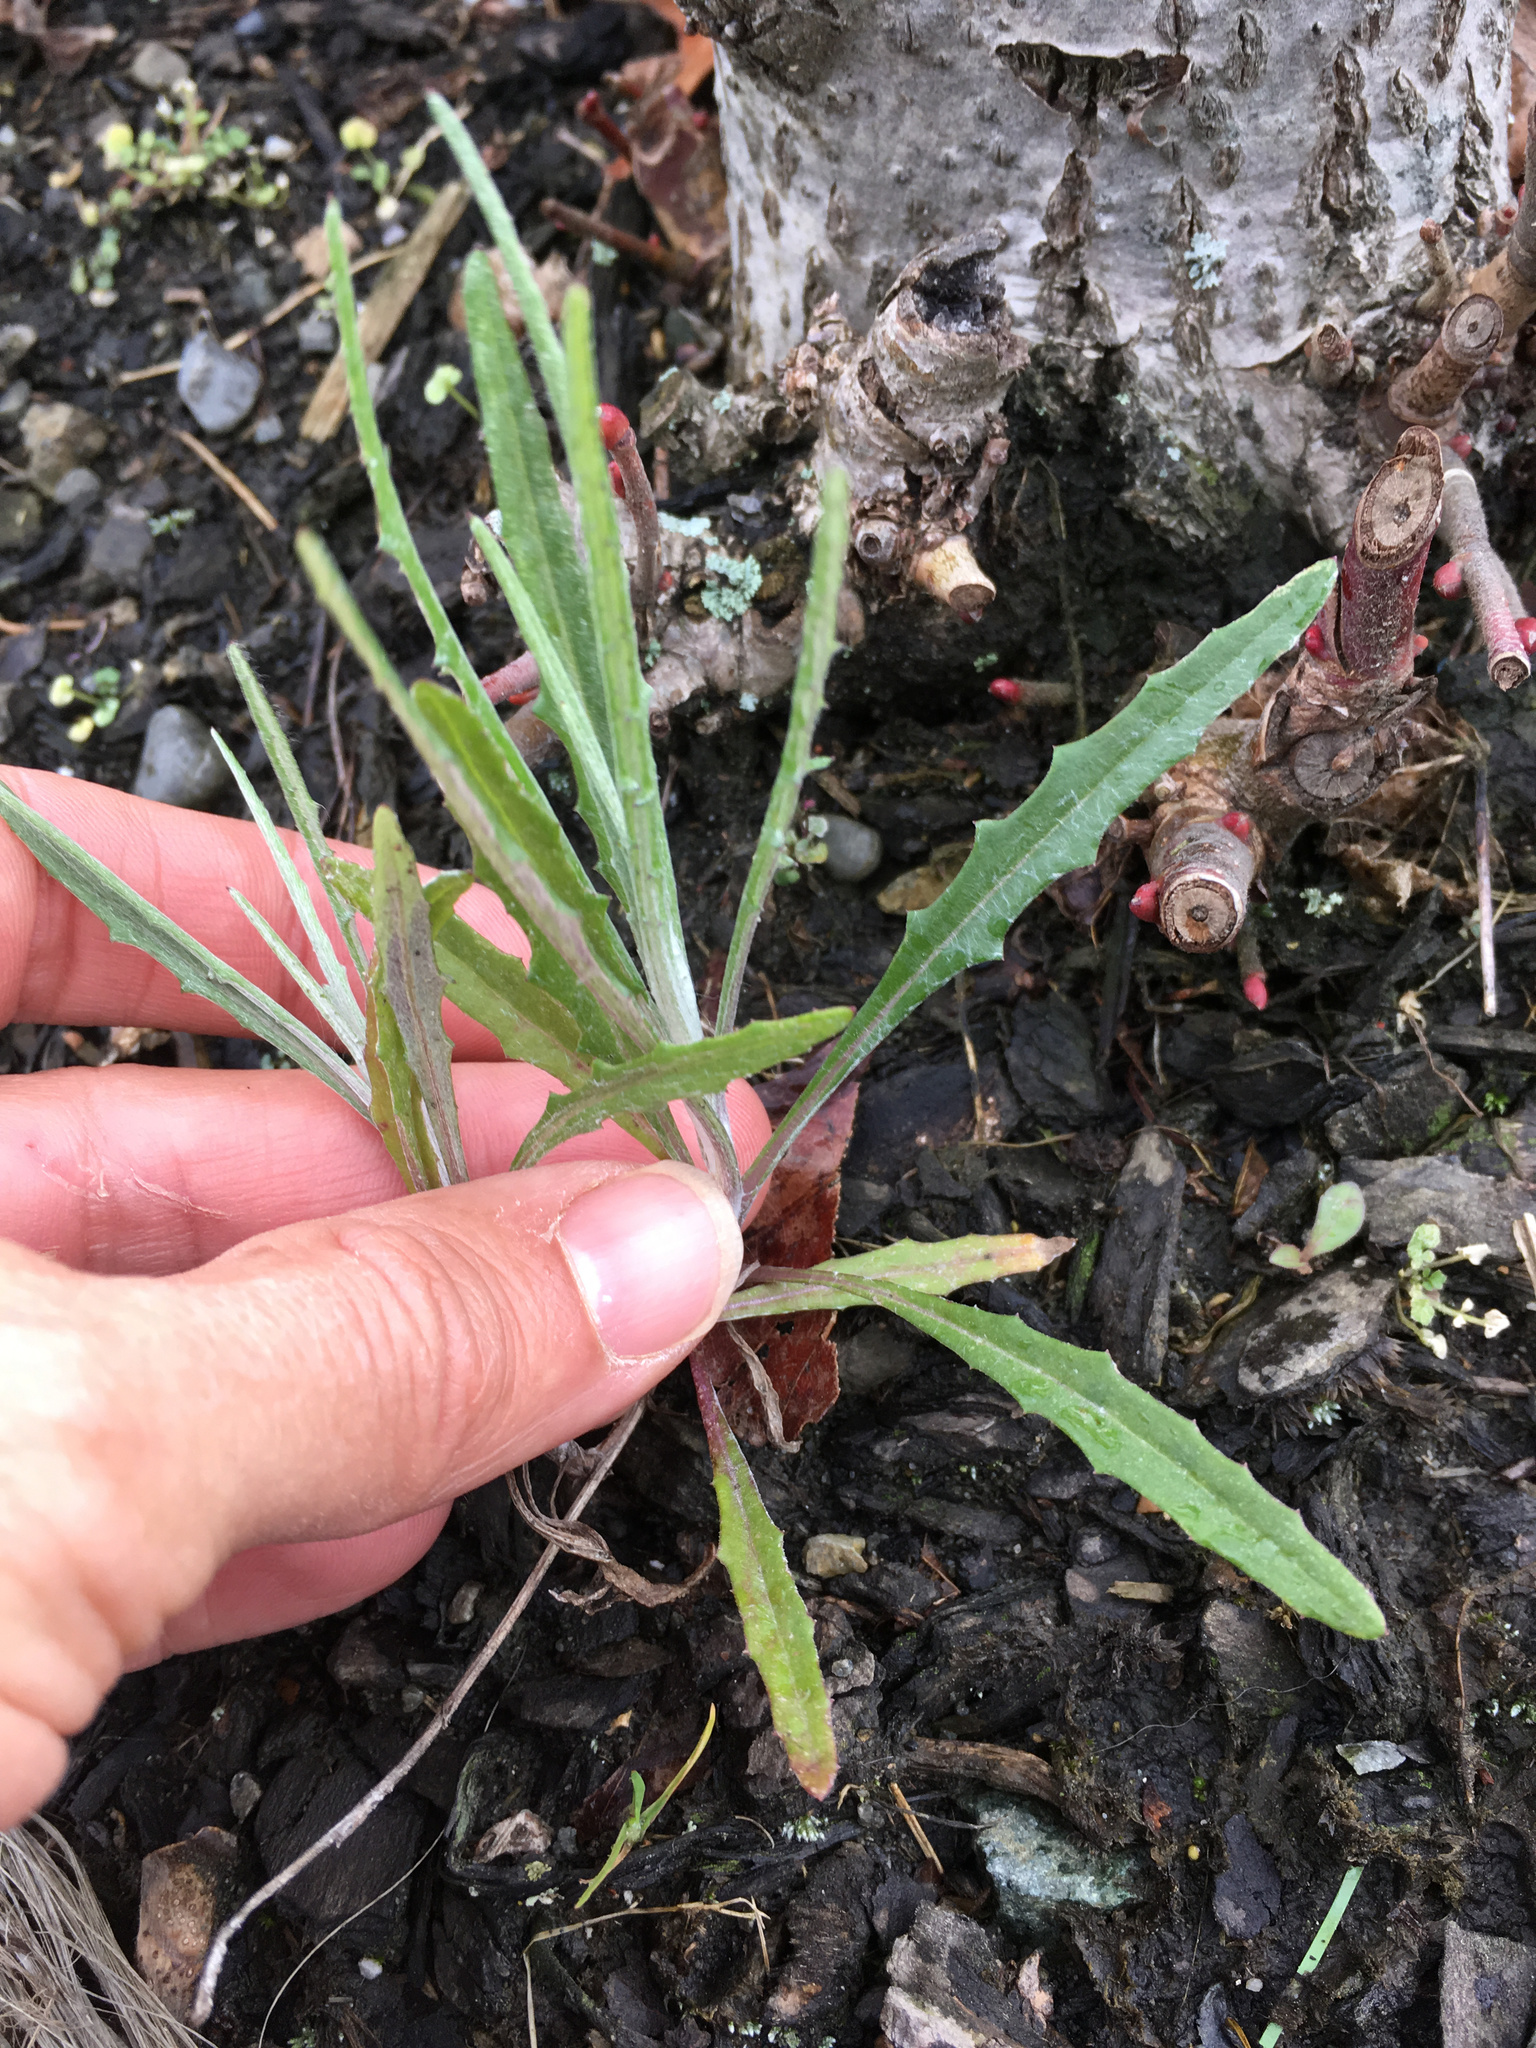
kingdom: Plantae
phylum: Tracheophyta
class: Magnoliopsida
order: Asterales
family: Asteraceae
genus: Senecio
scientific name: Senecio quadridentatus
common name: Cotton fireweed
